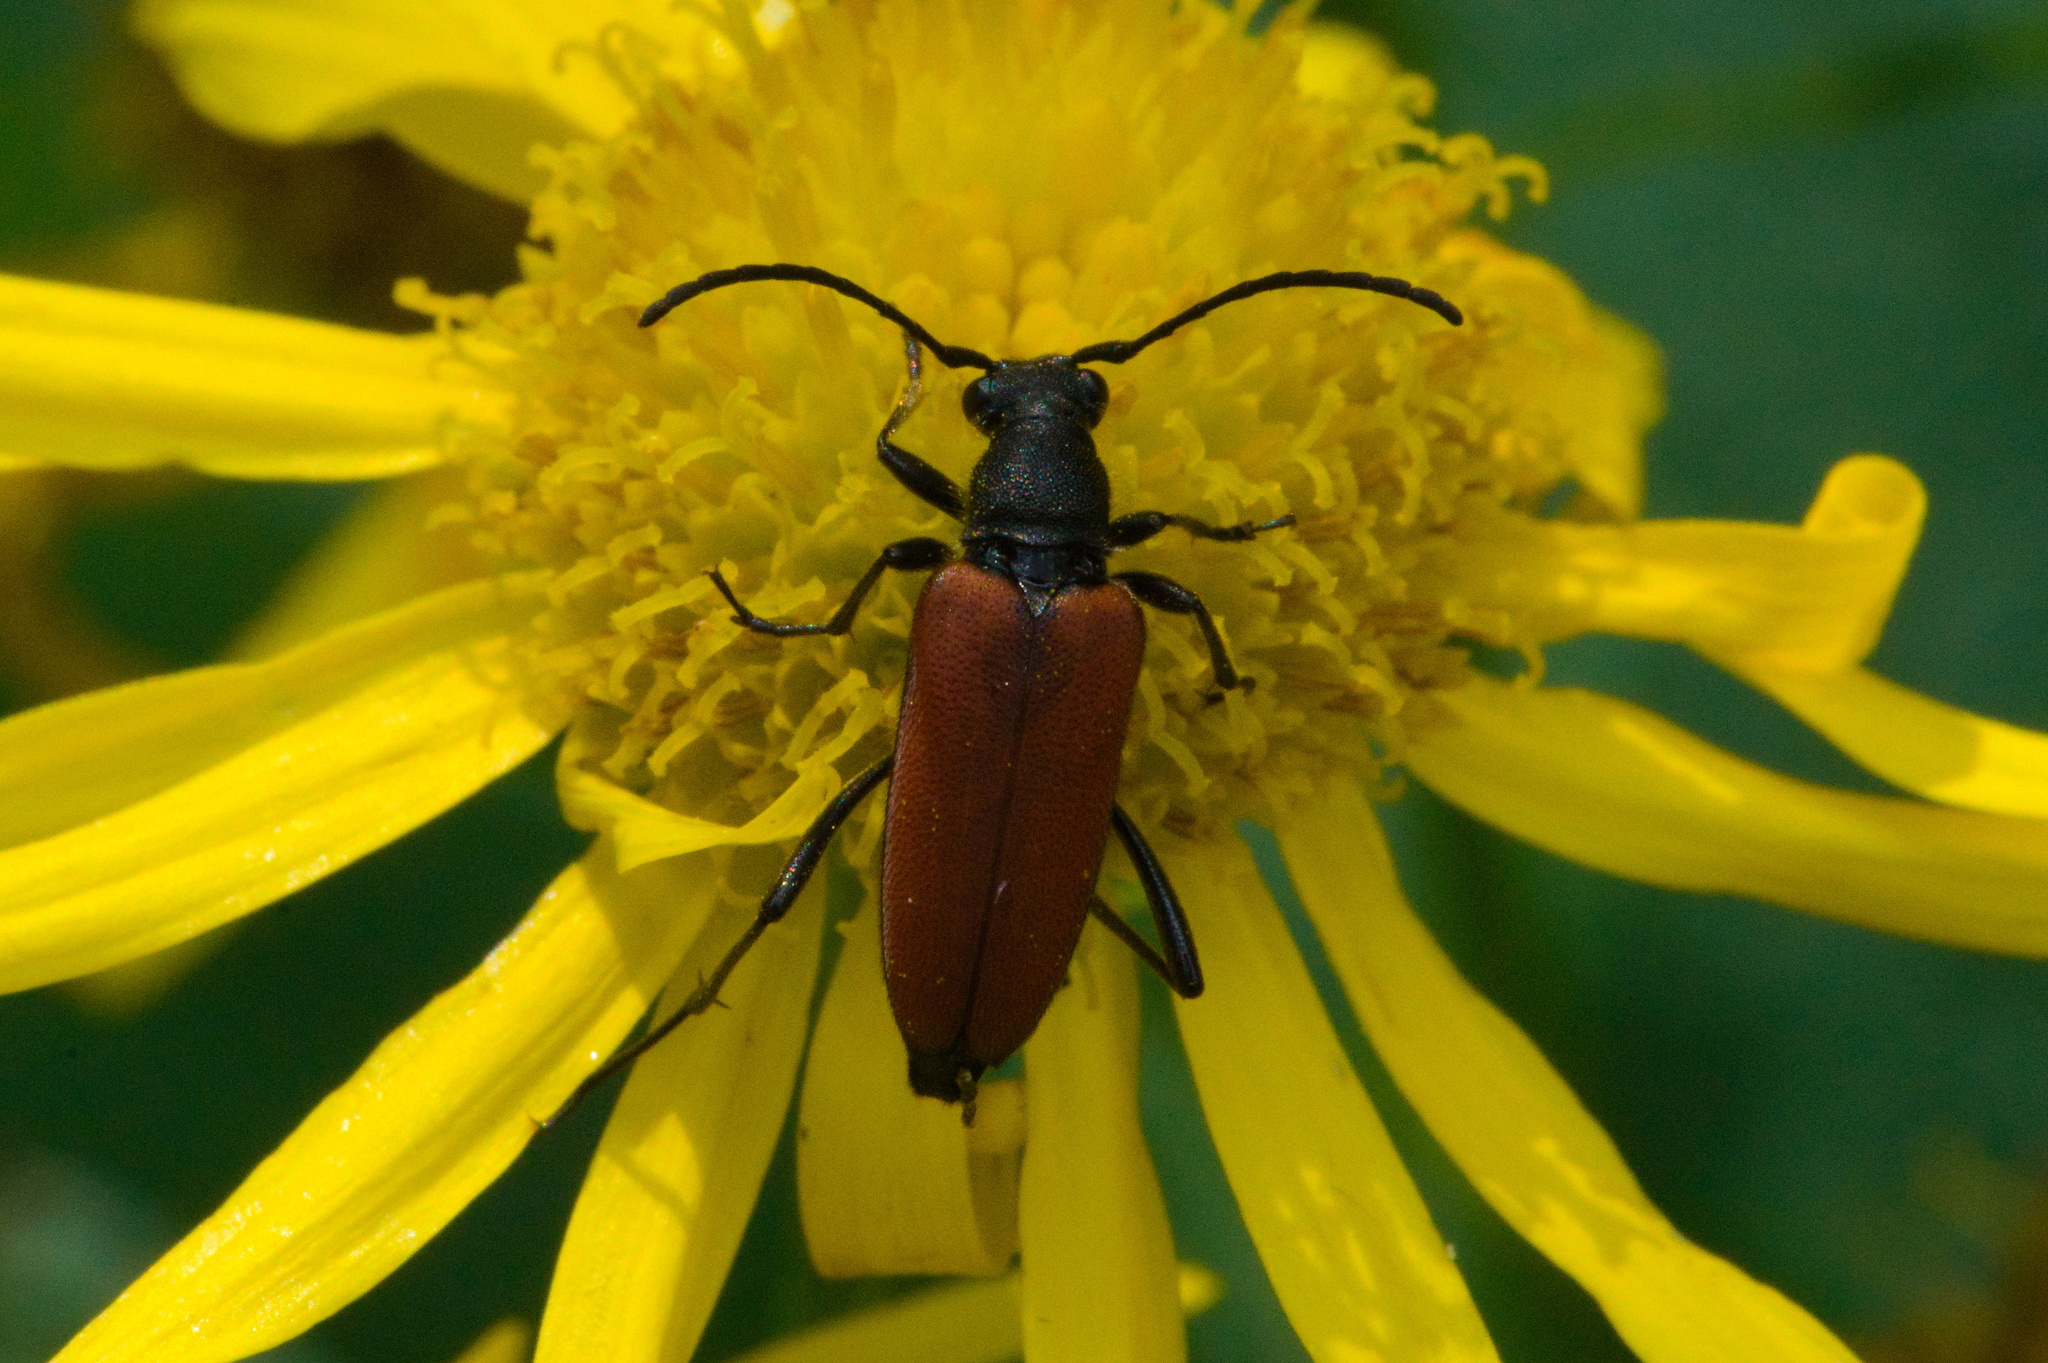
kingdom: Animalia
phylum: Arthropoda
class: Insecta
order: Coleoptera
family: Cerambycidae
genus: Anastrangalia
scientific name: Anastrangalia sanguinolenta
